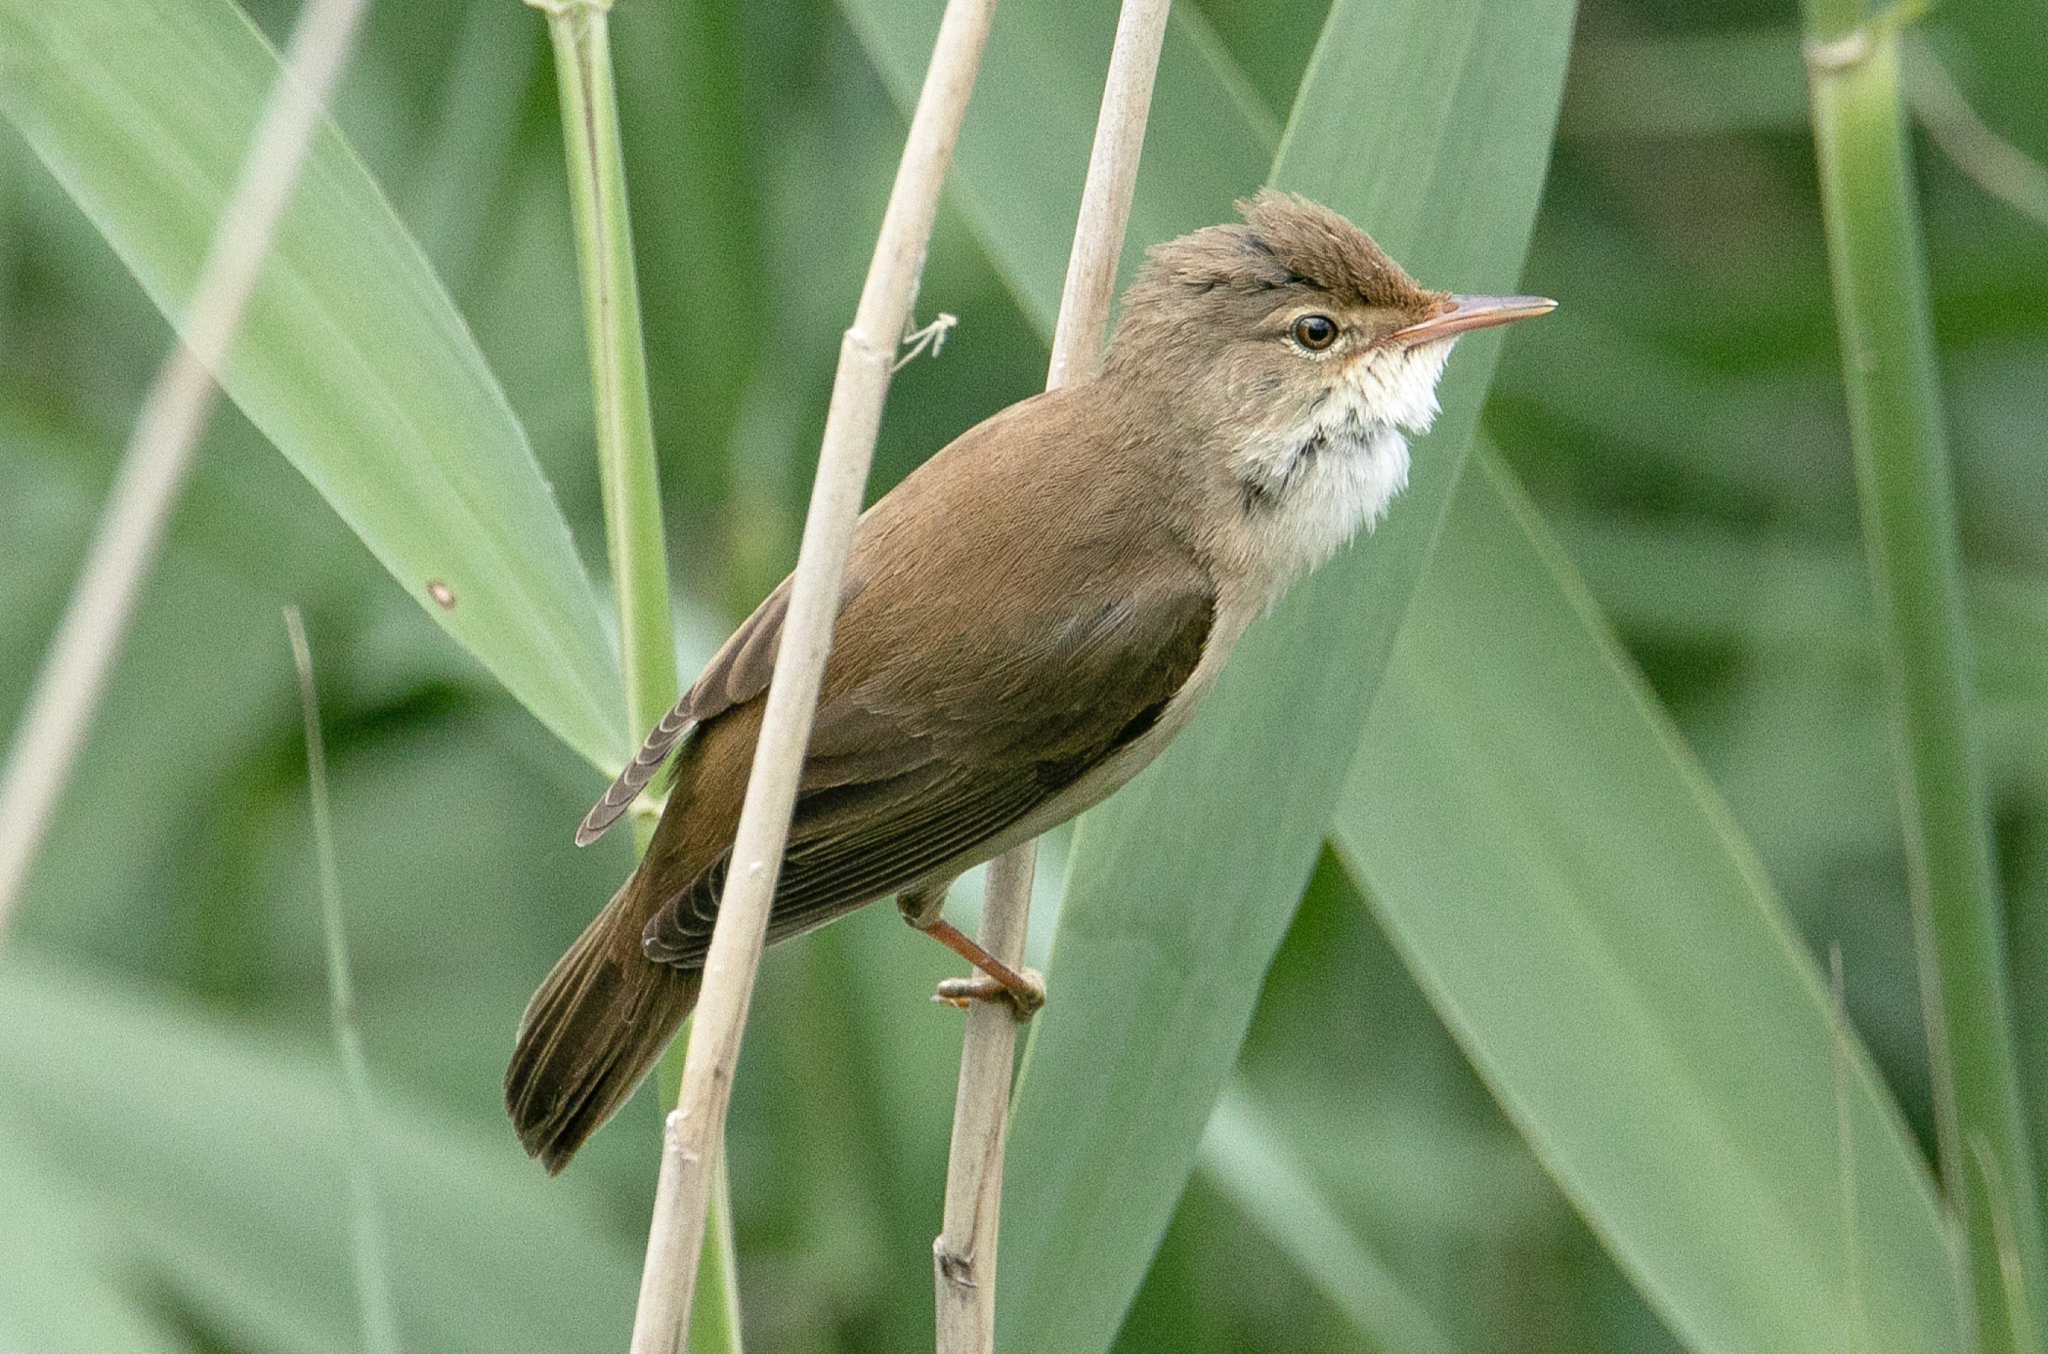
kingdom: Animalia
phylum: Chordata
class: Aves
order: Passeriformes
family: Acrocephalidae
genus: Acrocephalus
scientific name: Acrocephalus scirpaceus
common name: Eurasian reed warbler
